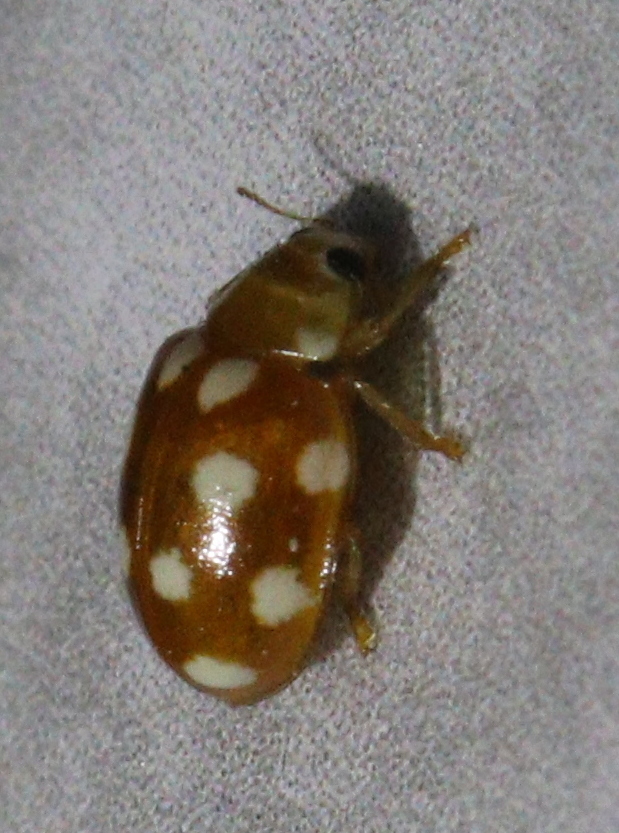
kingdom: Animalia
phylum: Arthropoda
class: Insecta
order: Coleoptera
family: Coccinellidae
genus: Vibidia
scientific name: Vibidia duodecimguttata
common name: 12-spot ladybird
